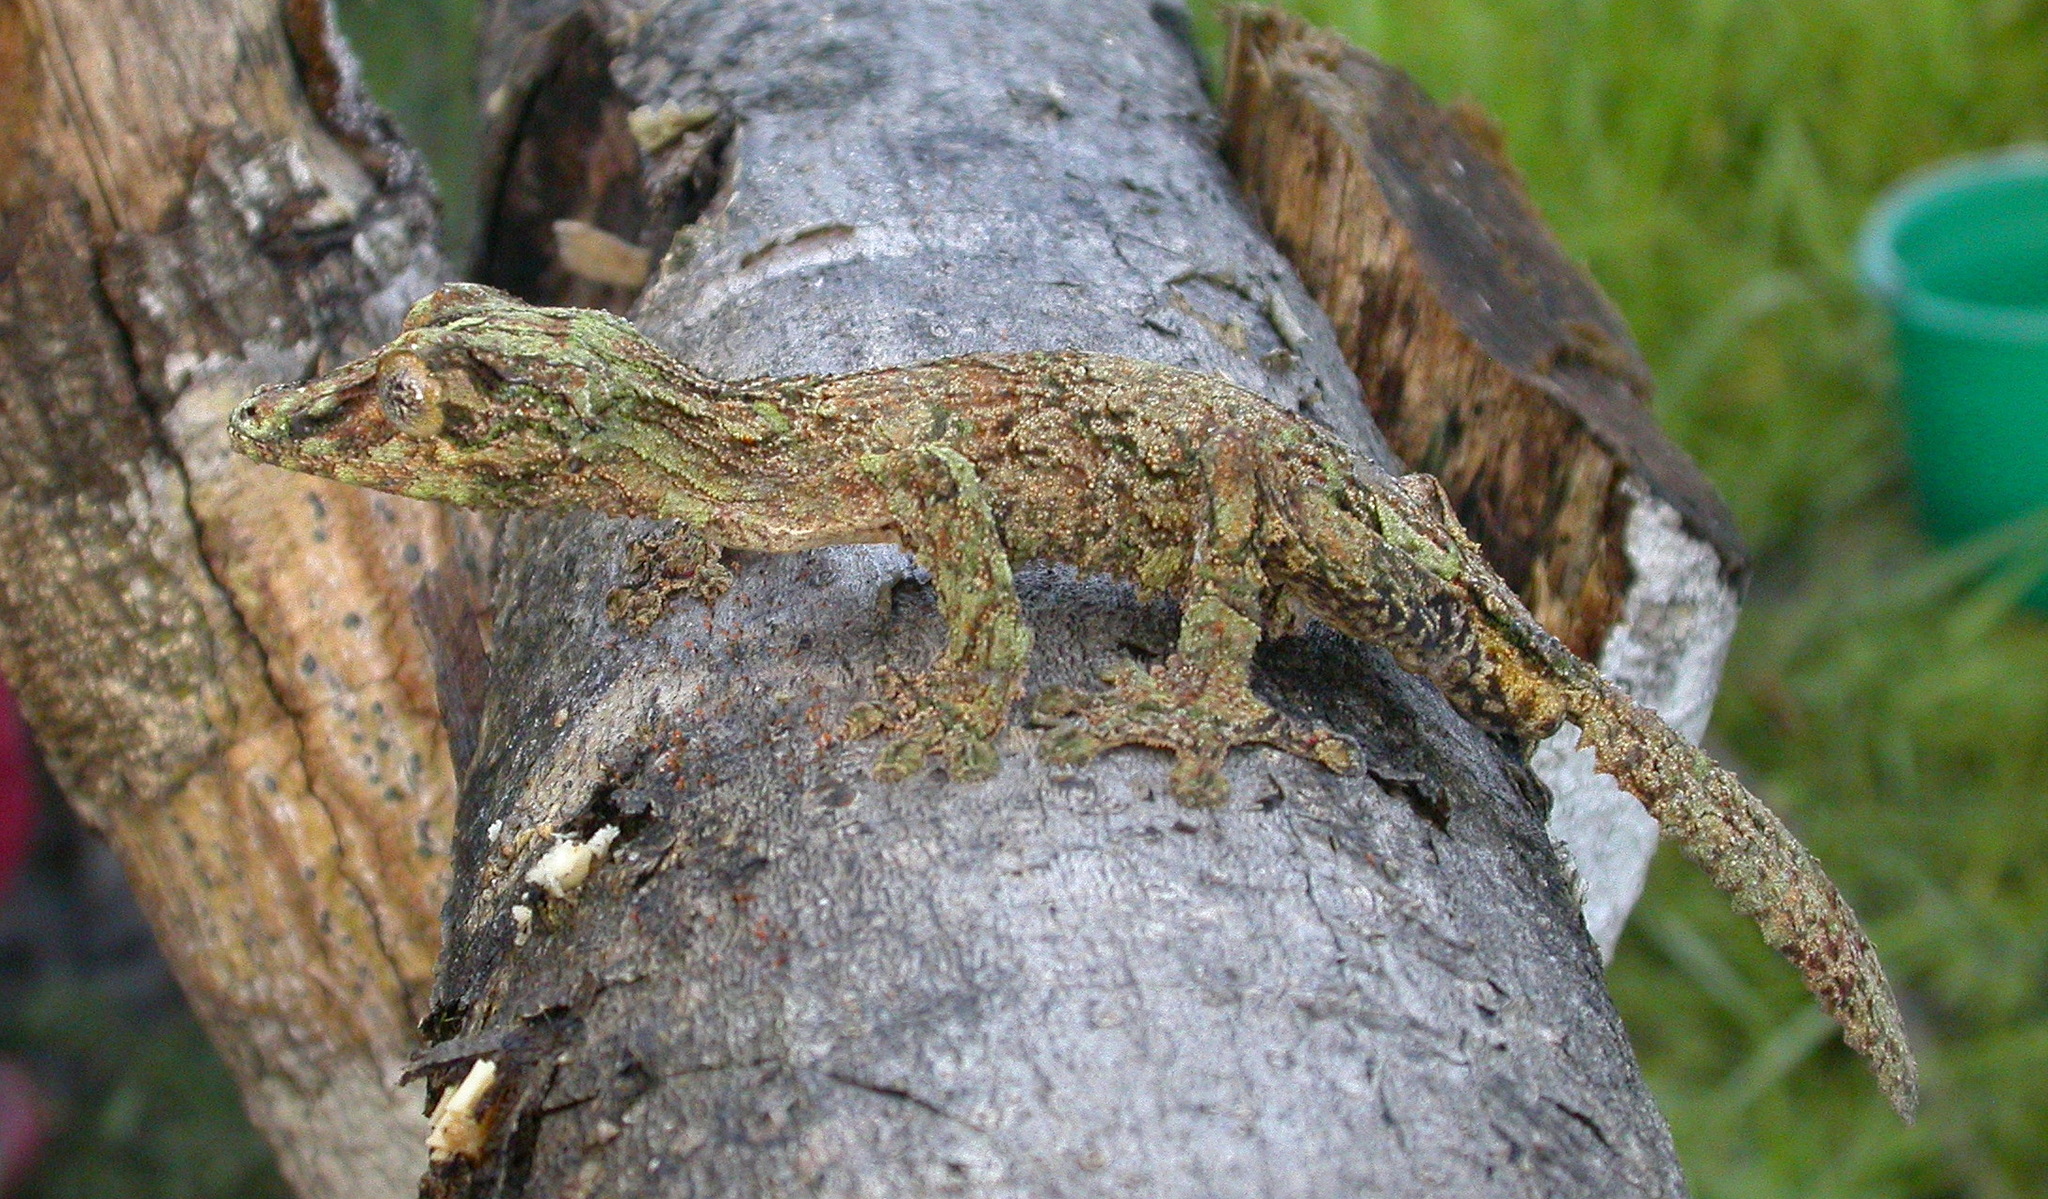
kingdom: Animalia
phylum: Chordata
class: Squamata
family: Gekkonidae
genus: Uroplatus
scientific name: Uroplatus sikorae
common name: Southern flat-tail gecko
